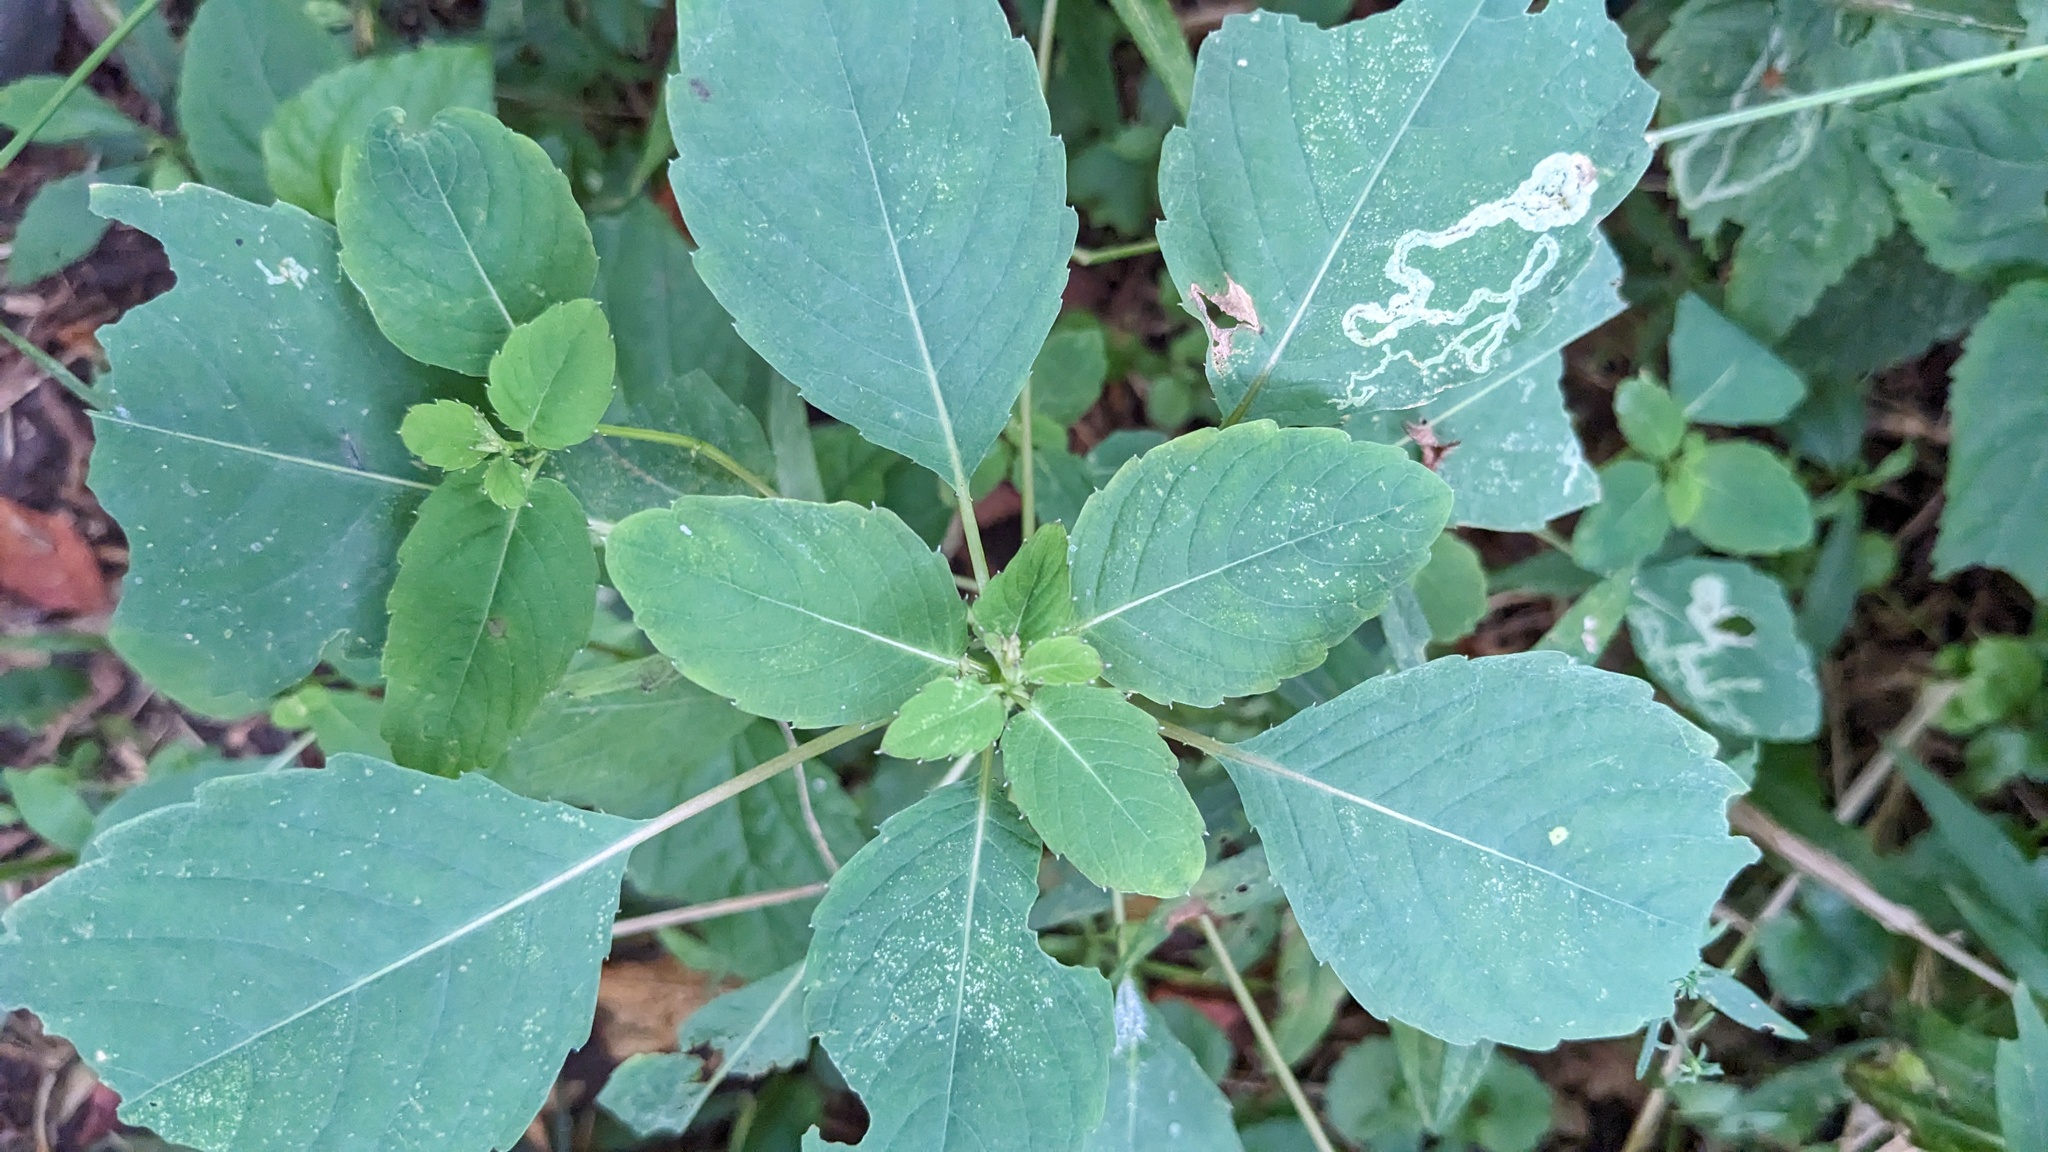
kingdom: Animalia
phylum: Arthropoda
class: Insecta
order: Diptera
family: Agromyzidae
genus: Phytoliriomyza
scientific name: Phytoliriomyza melampyga
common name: Jewelweed leaf-miner fly
